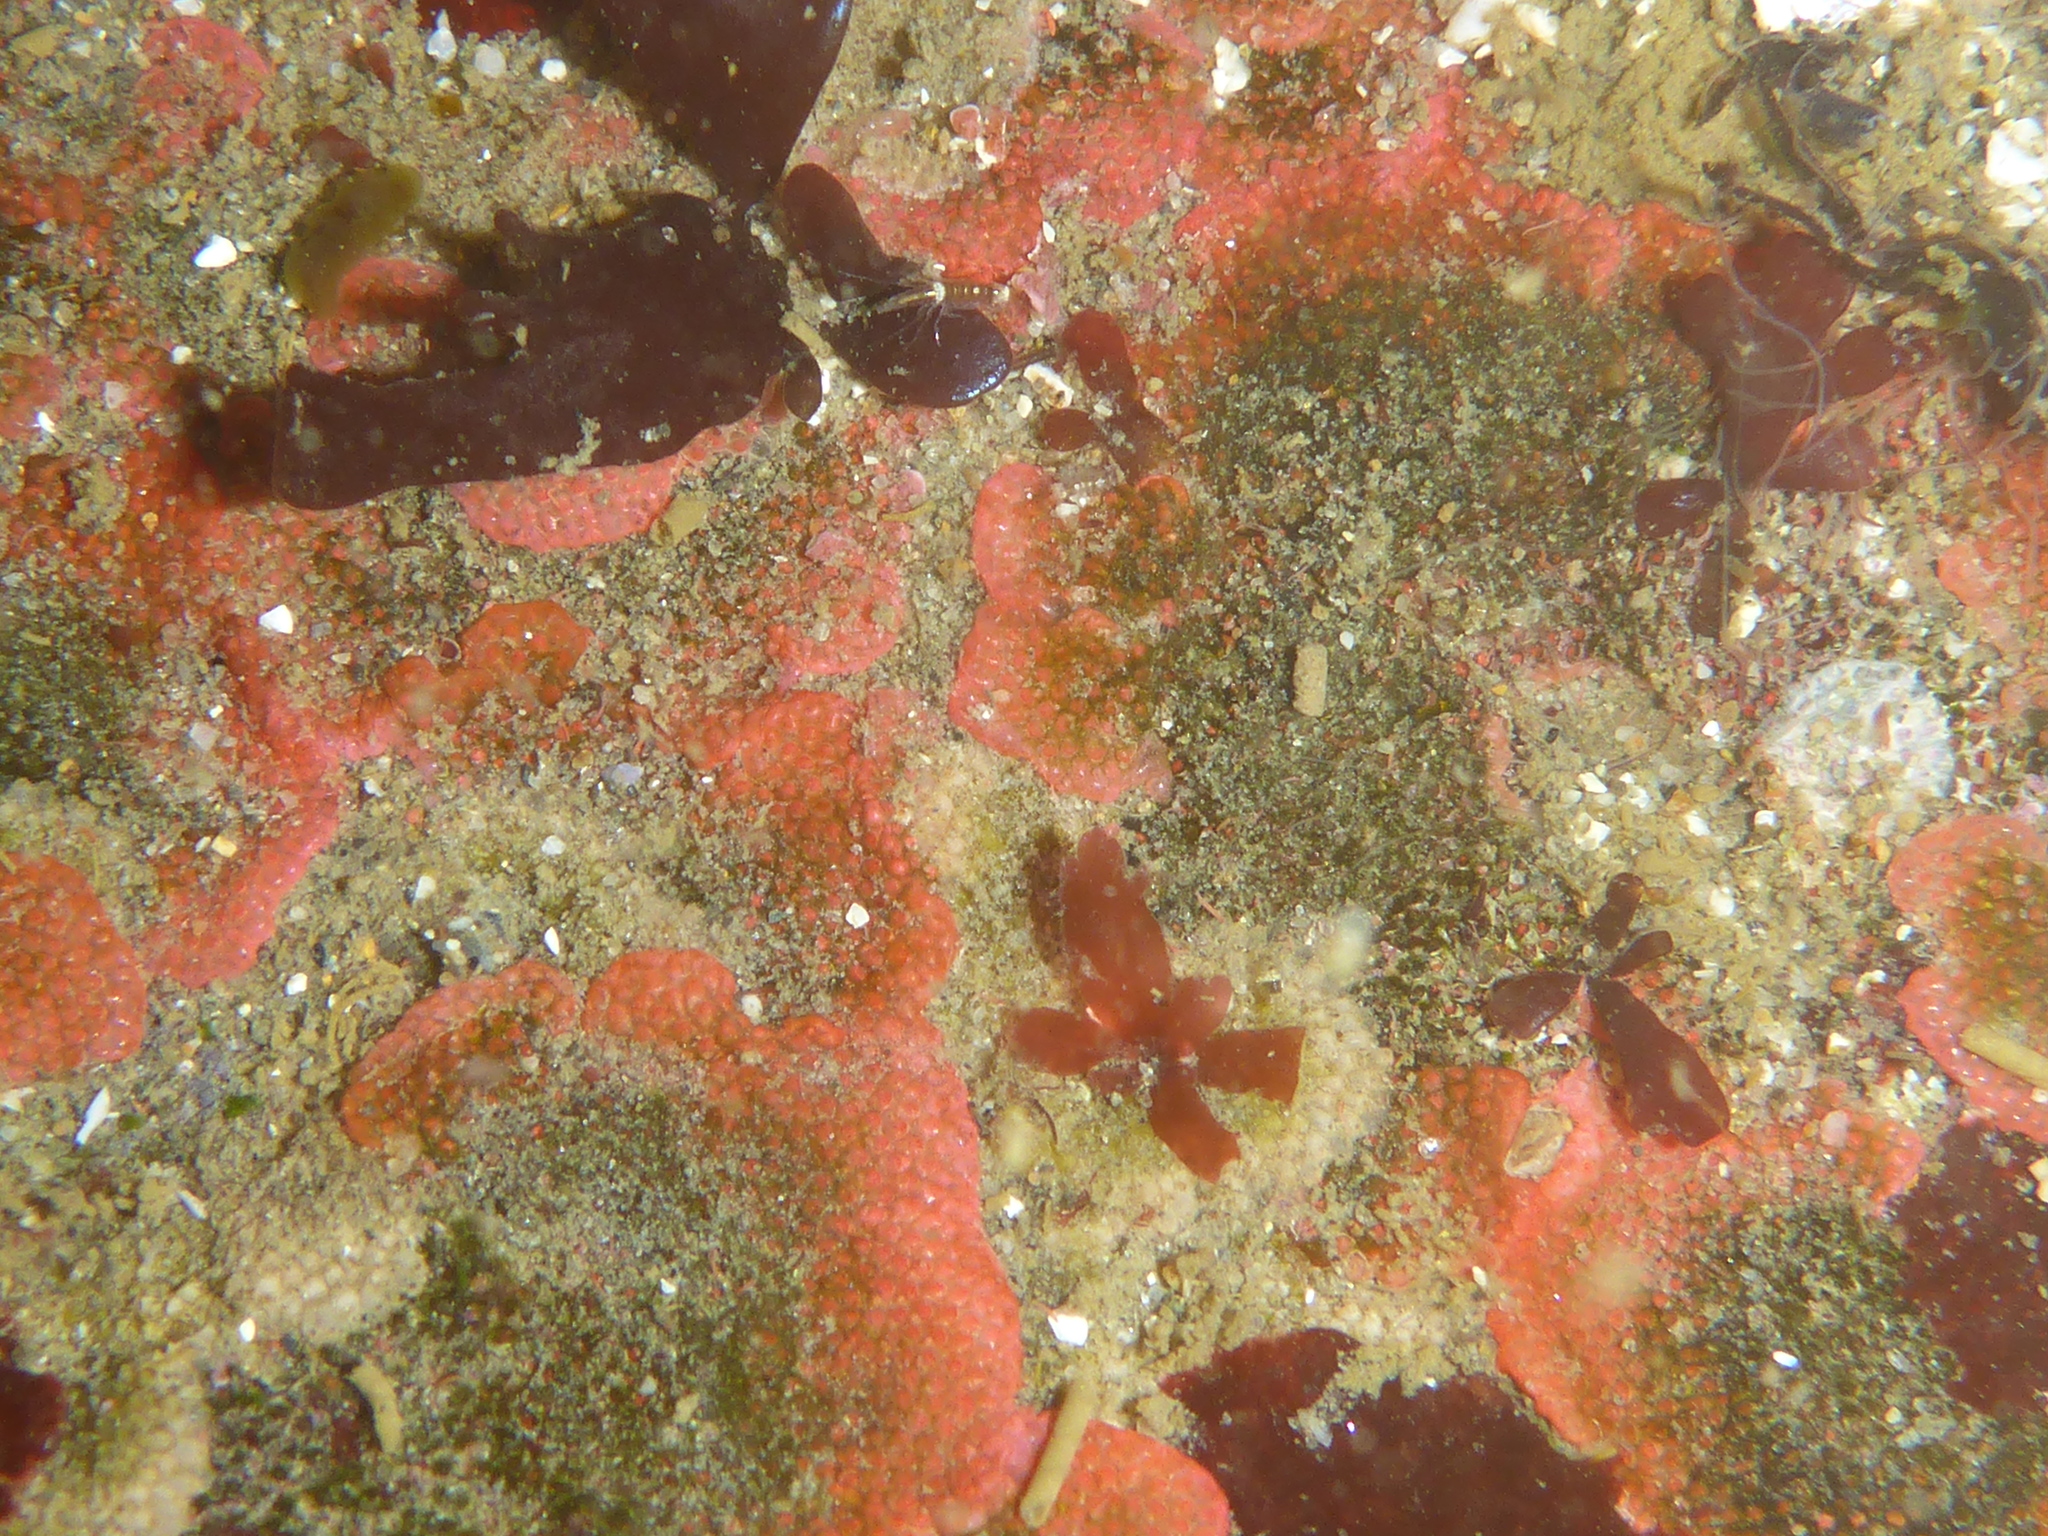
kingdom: Animalia
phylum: Bryozoa
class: Gymnolaemata
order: Cheilostomatida
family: Eurystomellidae
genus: Integripelta
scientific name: Integripelta bilabiata
